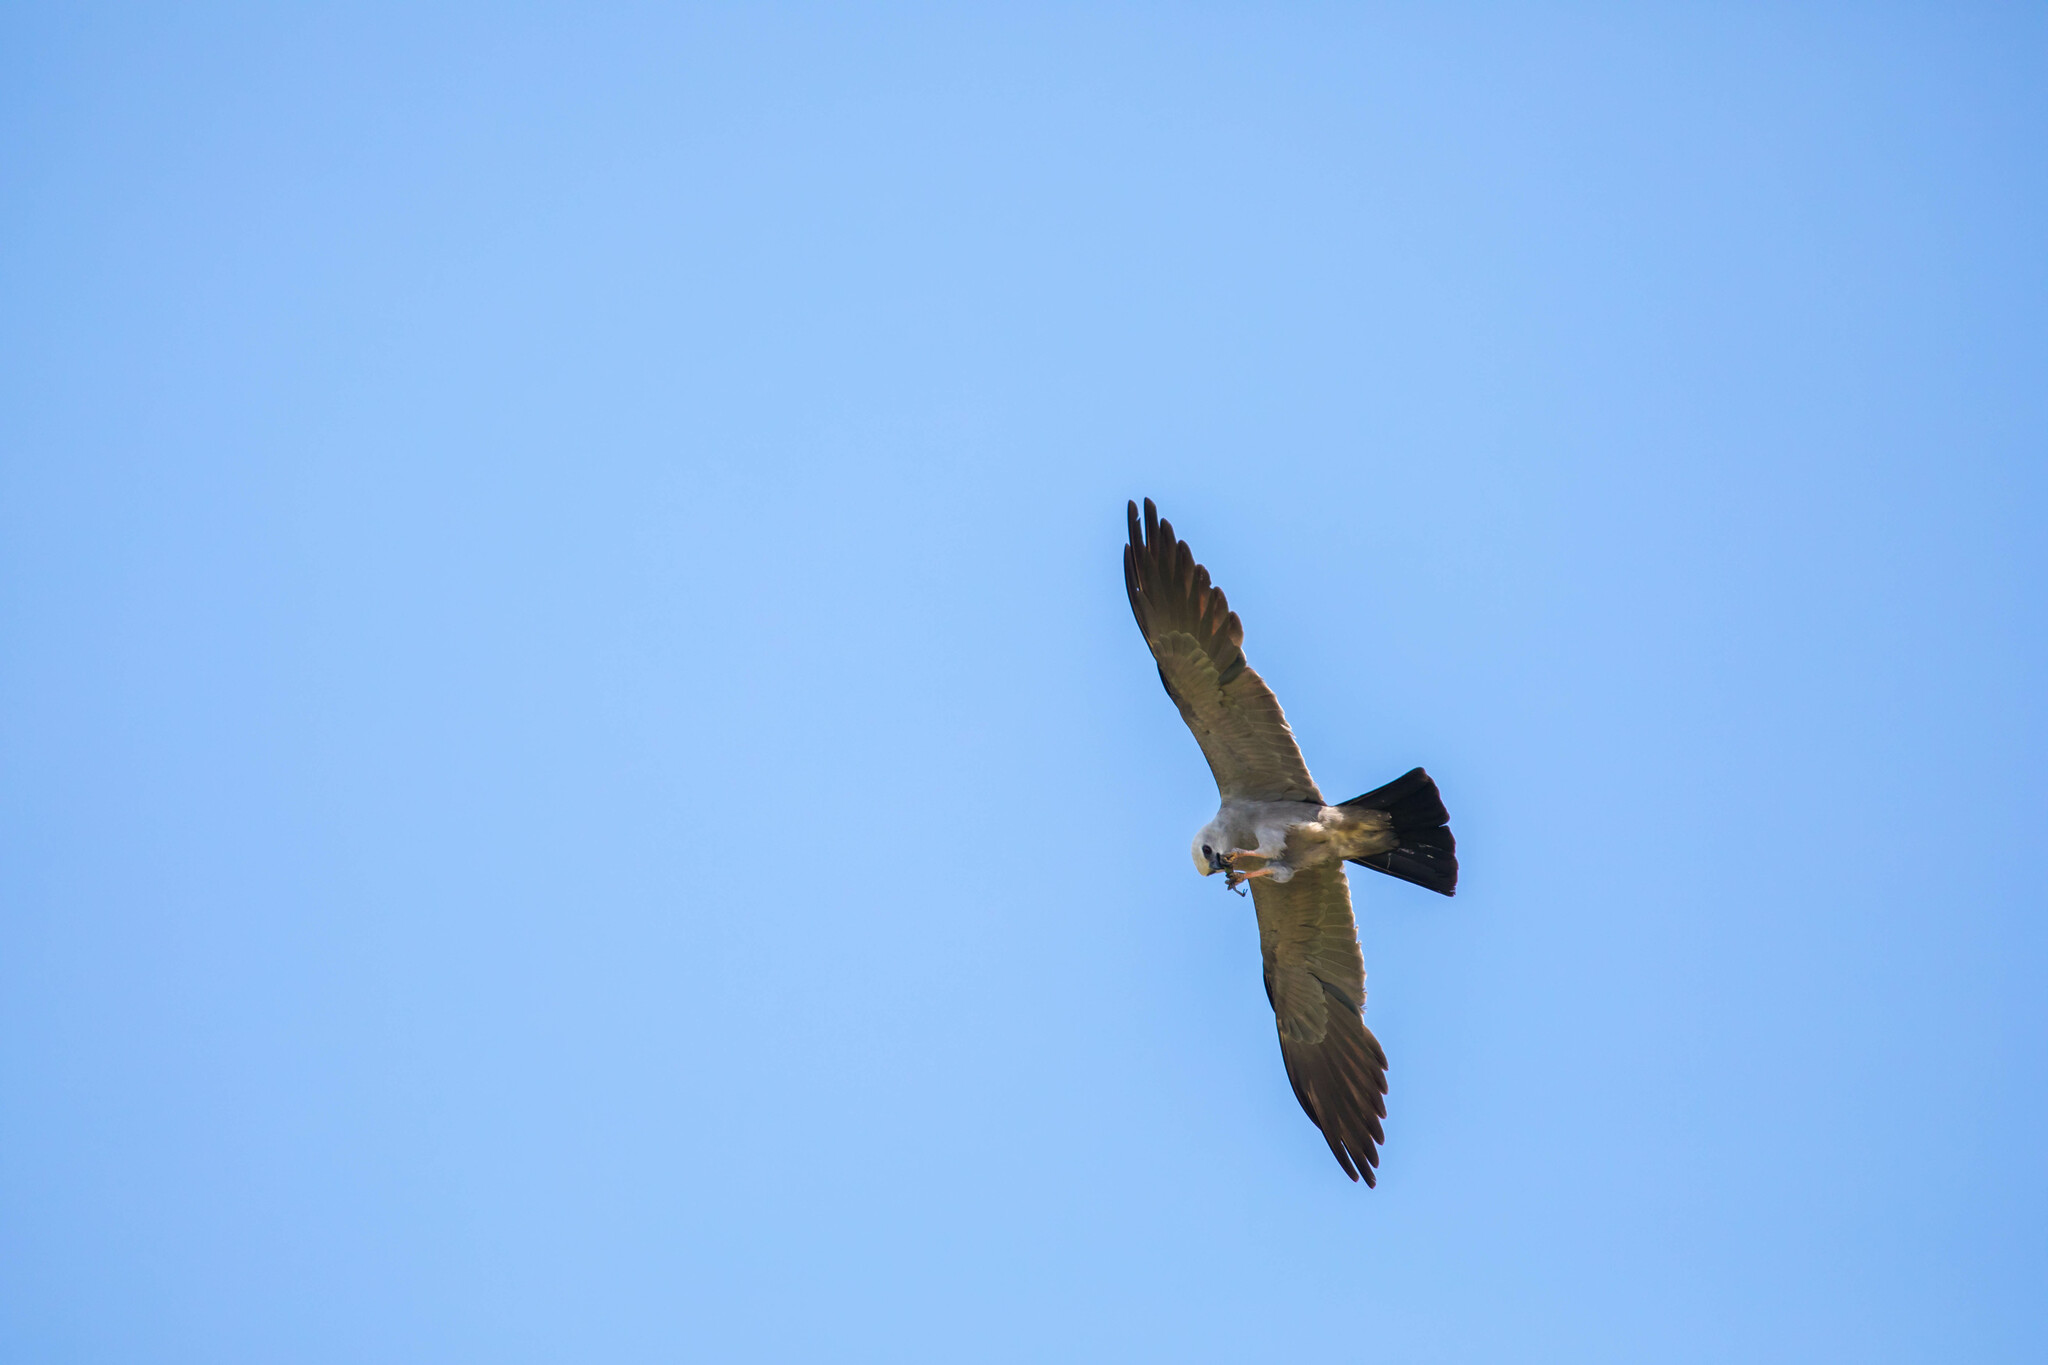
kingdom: Animalia
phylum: Chordata
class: Aves
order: Accipitriformes
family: Accipitridae
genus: Ictinia
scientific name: Ictinia mississippiensis
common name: Mississippi kite
